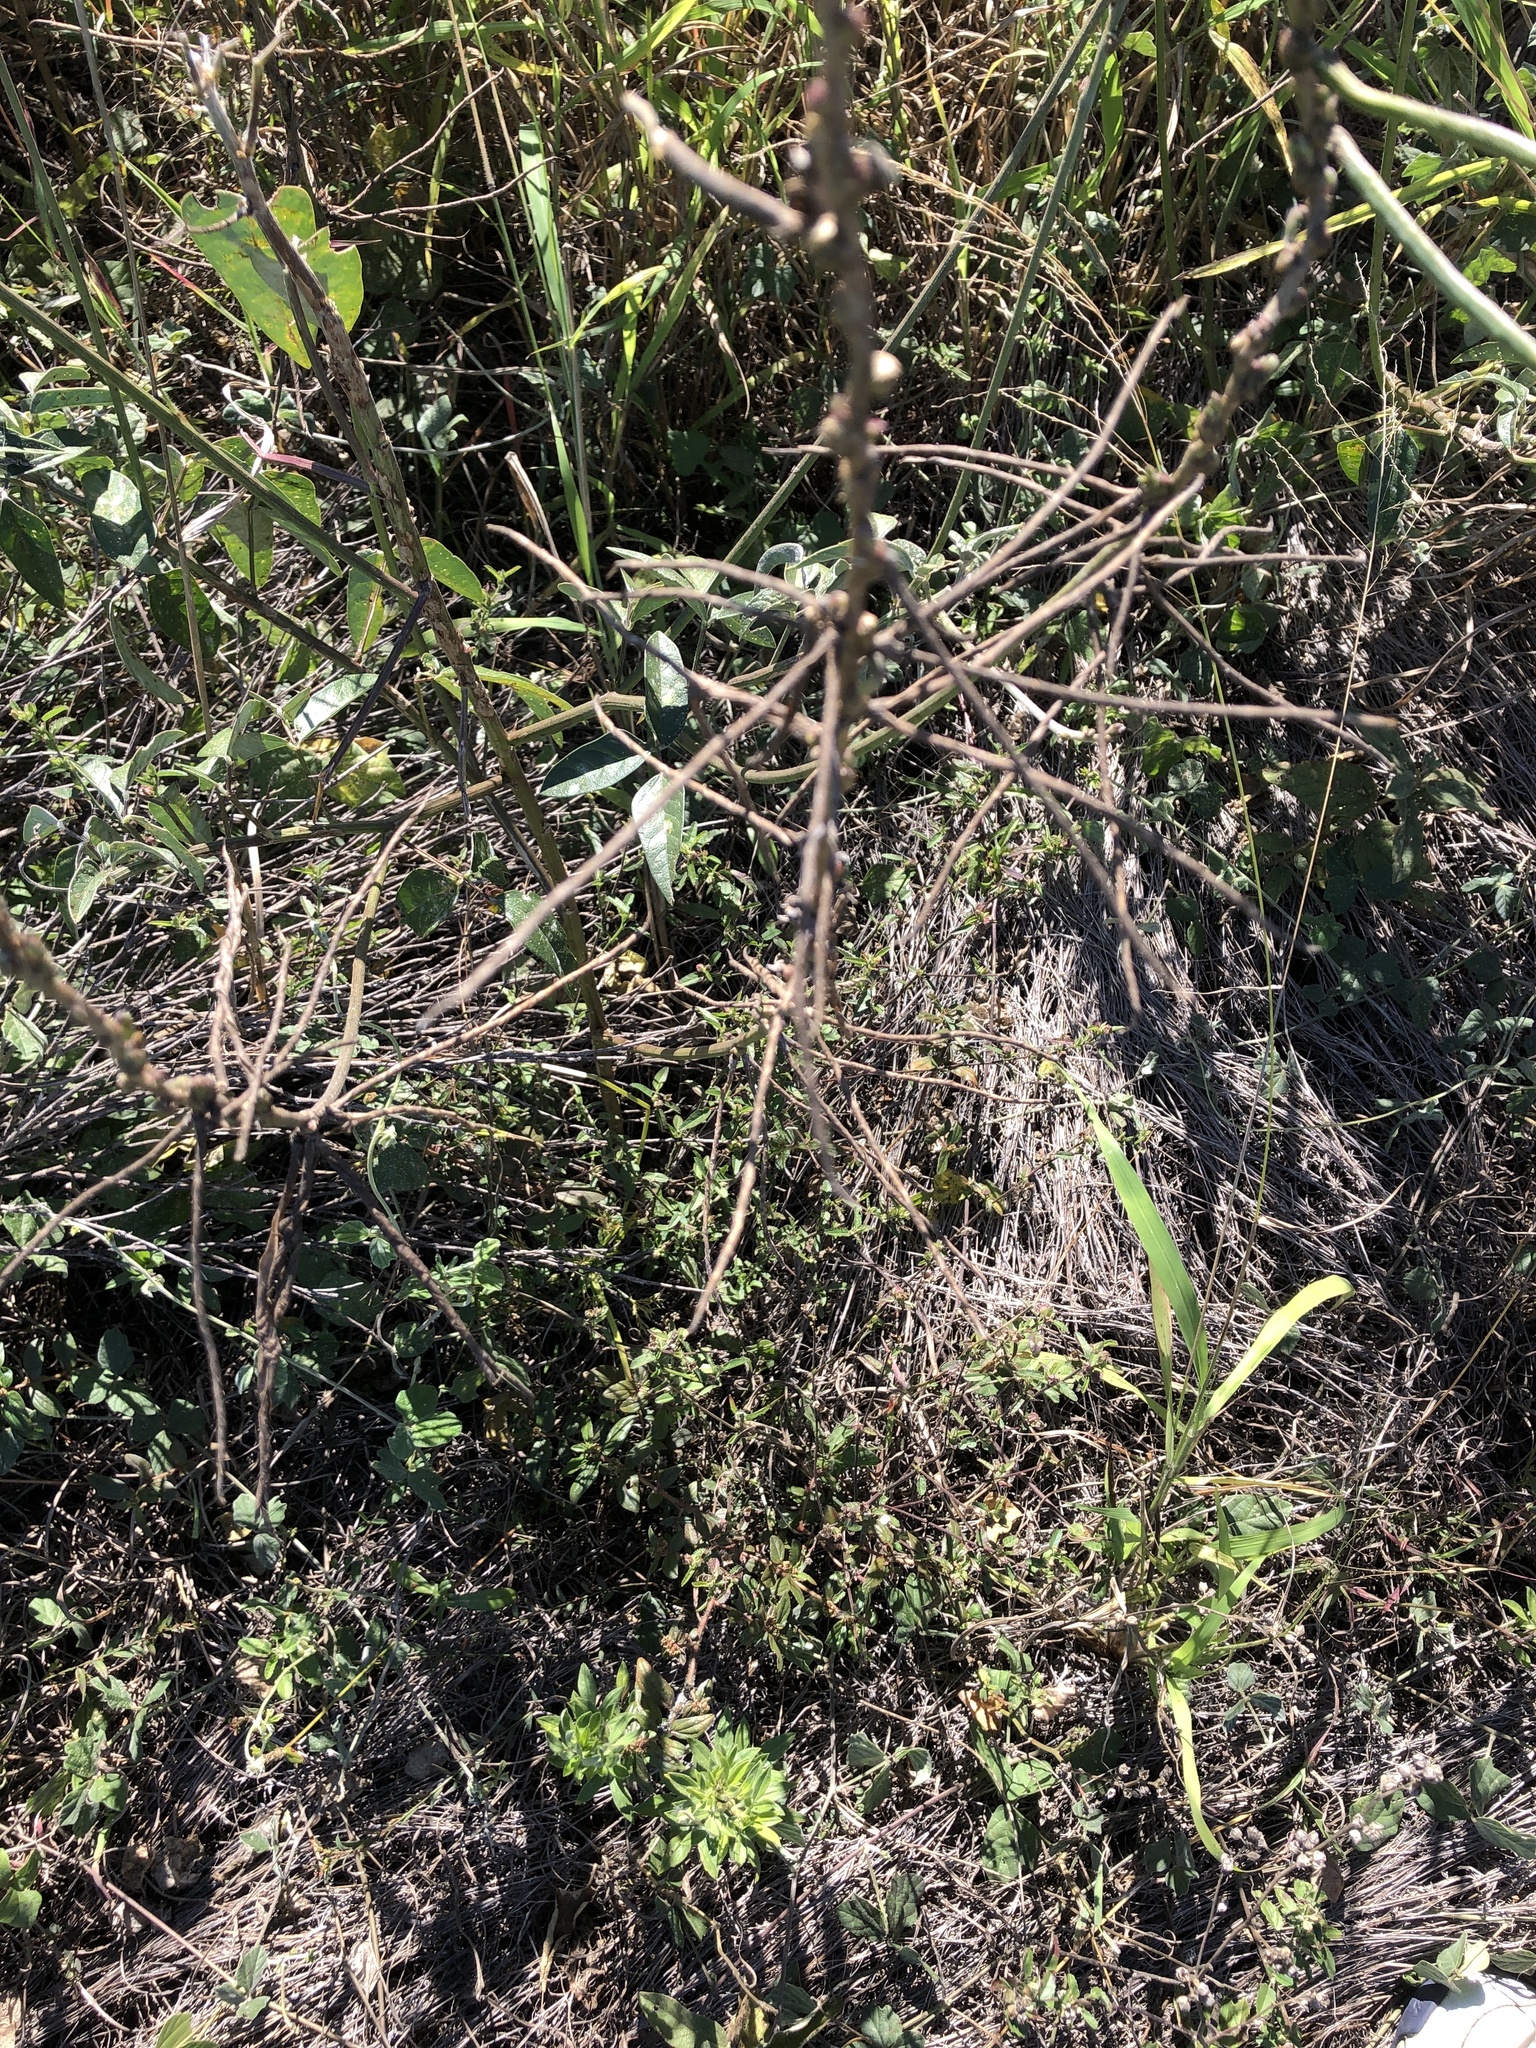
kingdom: Plantae
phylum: Tracheophyta
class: Magnoliopsida
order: Fabales
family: Fabaceae
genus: Macroptilium
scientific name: Macroptilium lathyroides
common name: Wild bushbean
